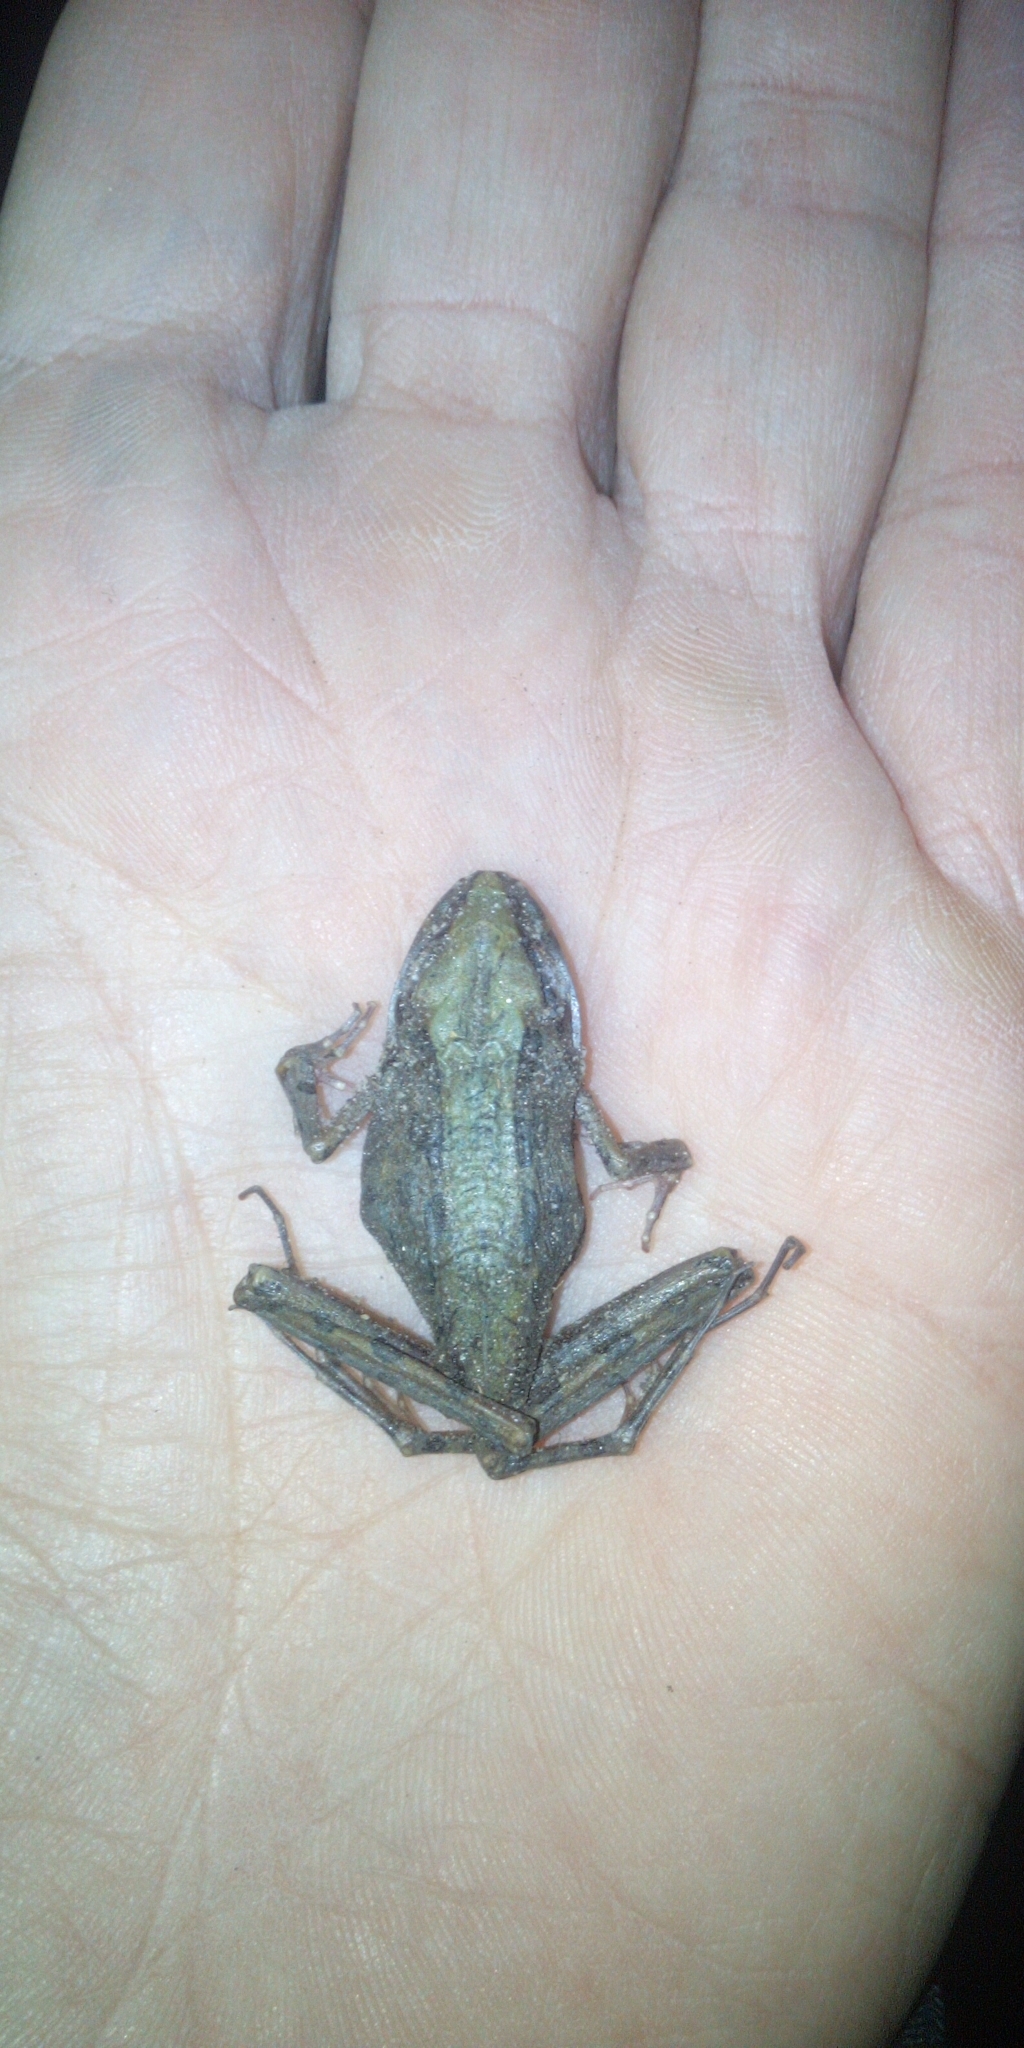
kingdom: Animalia
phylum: Chordata
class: Amphibia
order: Anura
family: Pyxicephalidae
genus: Strongylopus
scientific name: Strongylopus grayii
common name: Gray's stream frog
